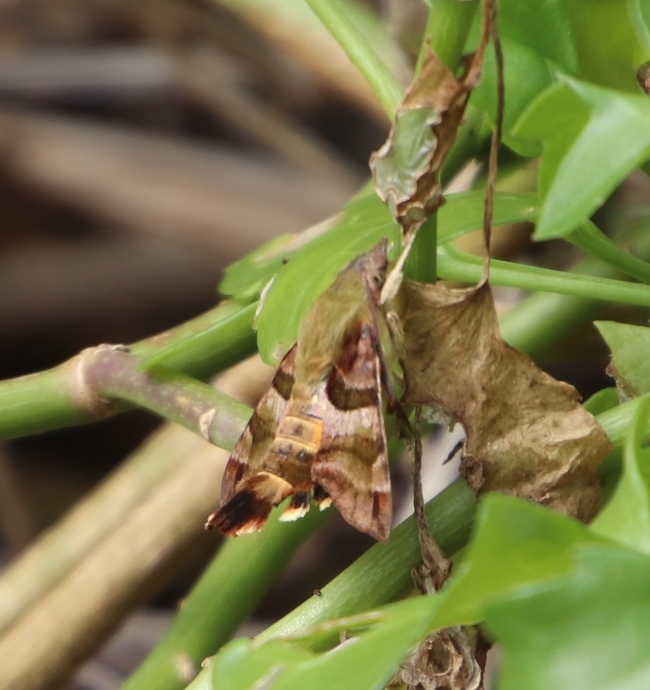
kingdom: Animalia
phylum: Arthropoda
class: Insecta
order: Lepidoptera
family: Sphingidae
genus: Macroglossum
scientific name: Macroglossum trochilus
